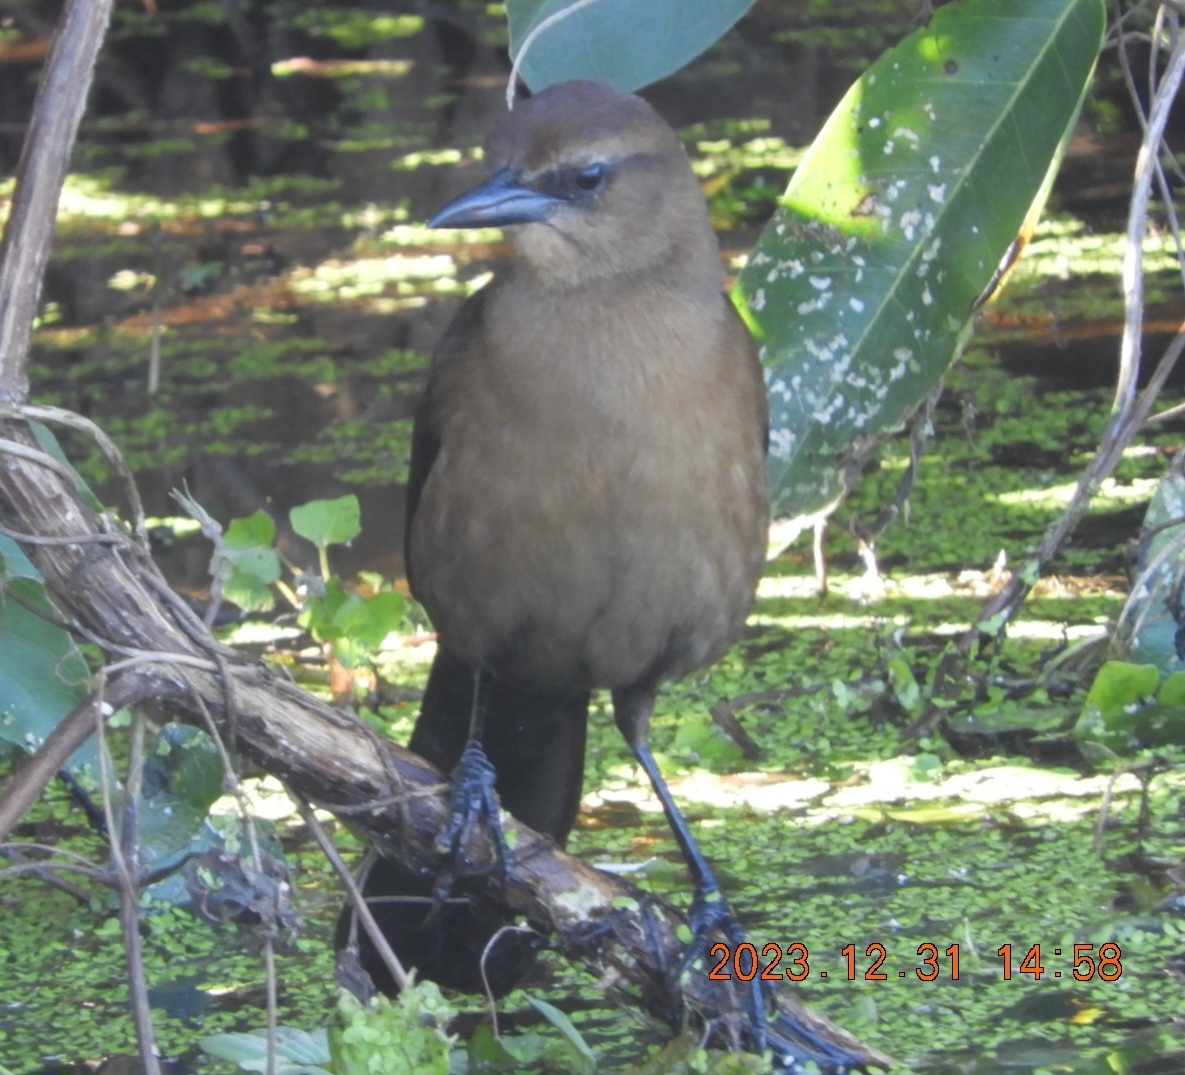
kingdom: Animalia
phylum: Chordata
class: Aves
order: Passeriformes
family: Icteridae
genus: Quiscalus
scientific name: Quiscalus major
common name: Boat-tailed grackle
